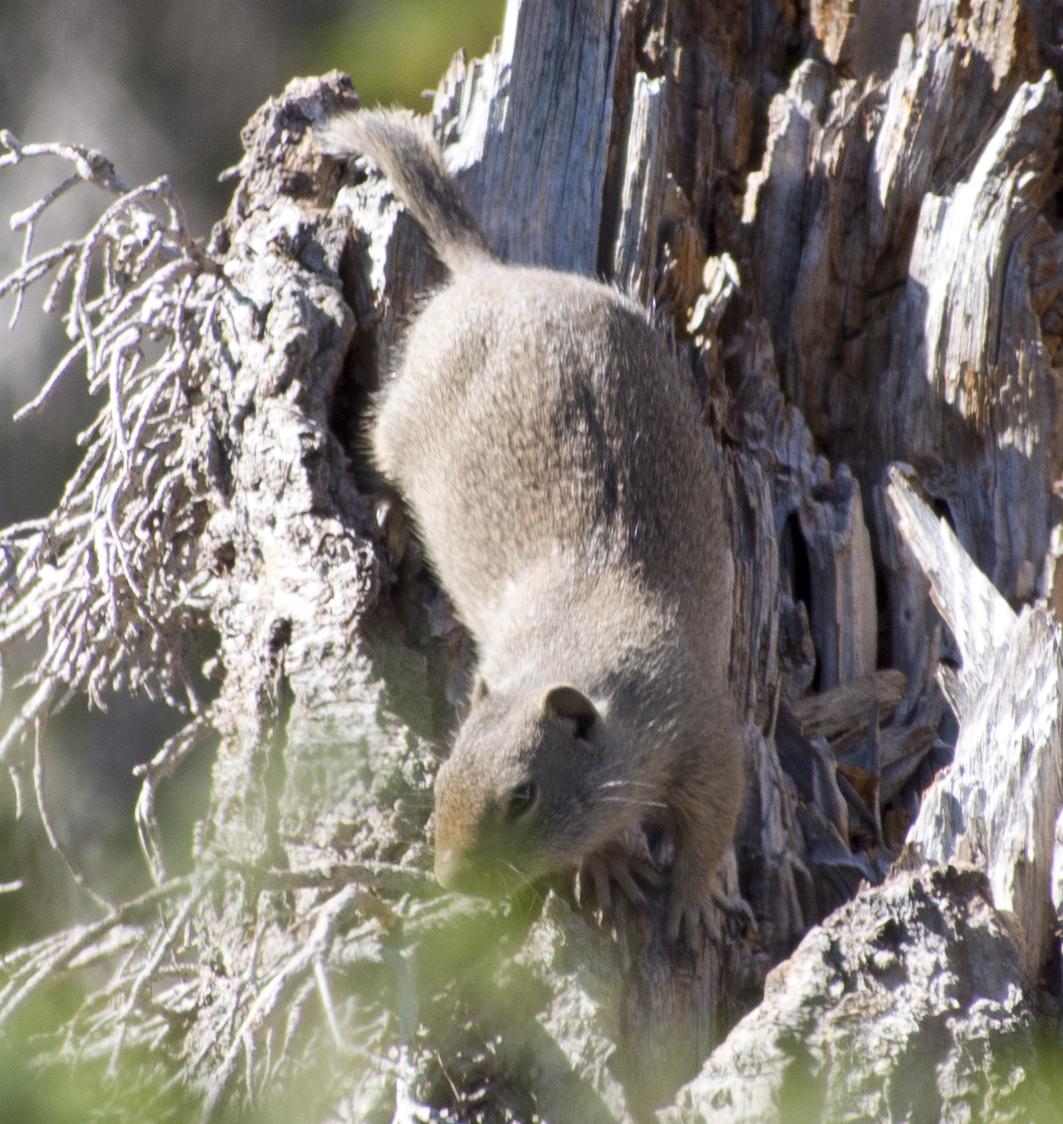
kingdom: Animalia
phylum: Chordata
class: Mammalia
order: Rodentia
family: Sciuridae
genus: Urocitellus
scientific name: Urocitellus armatus
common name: Uinta ground squirrel
